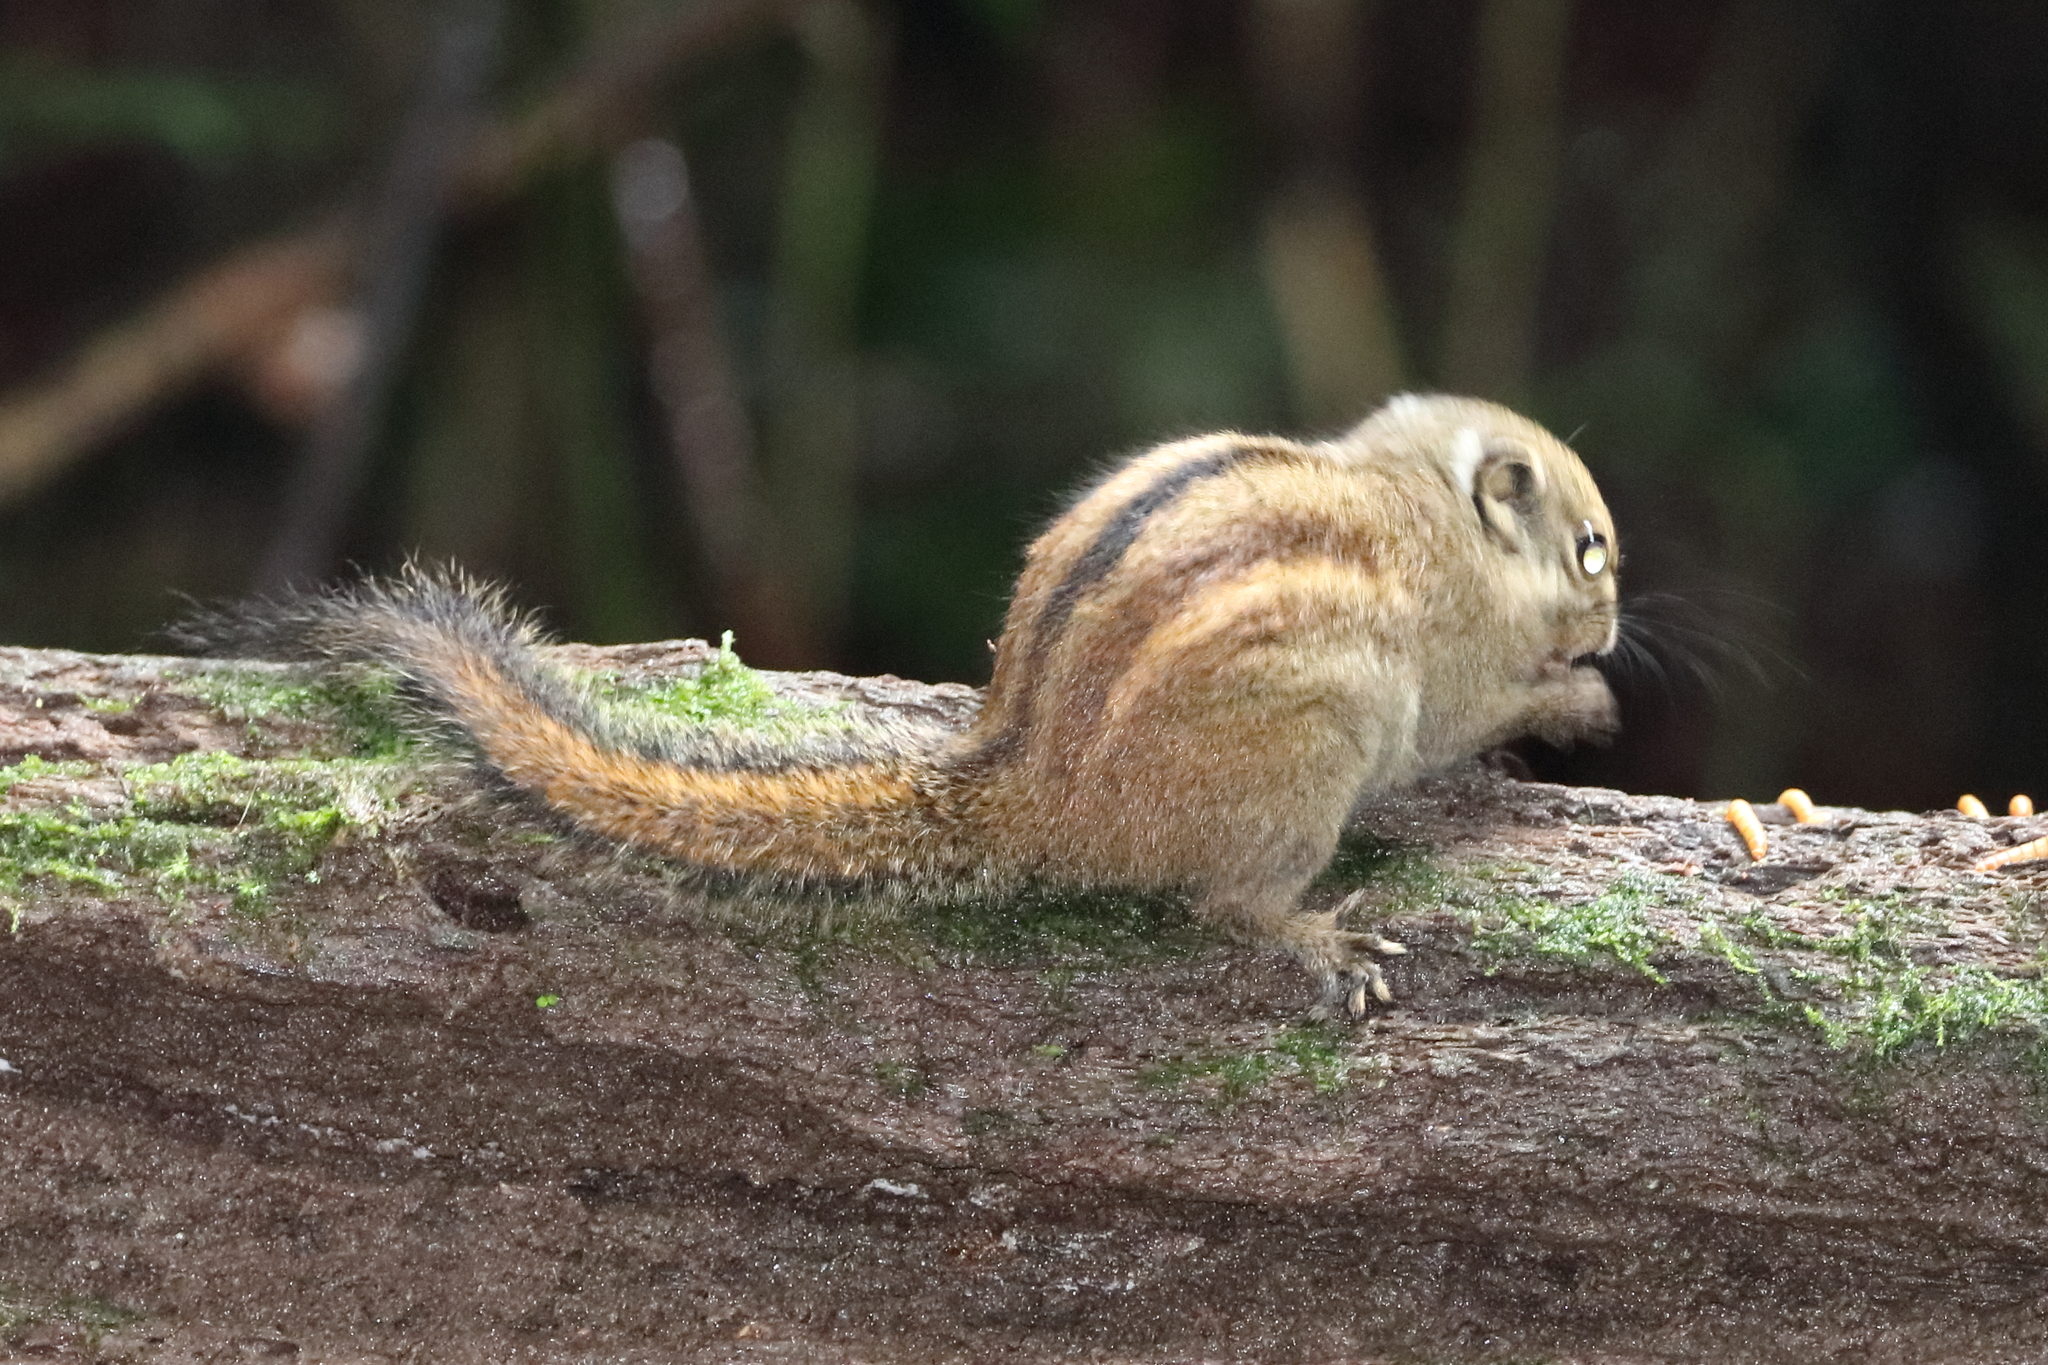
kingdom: Animalia
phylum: Chordata
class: Mammalia
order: Rodentia
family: Sciuridae
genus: Tamiops
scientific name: Tamiops maritimus
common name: Maritime striped squirrel
